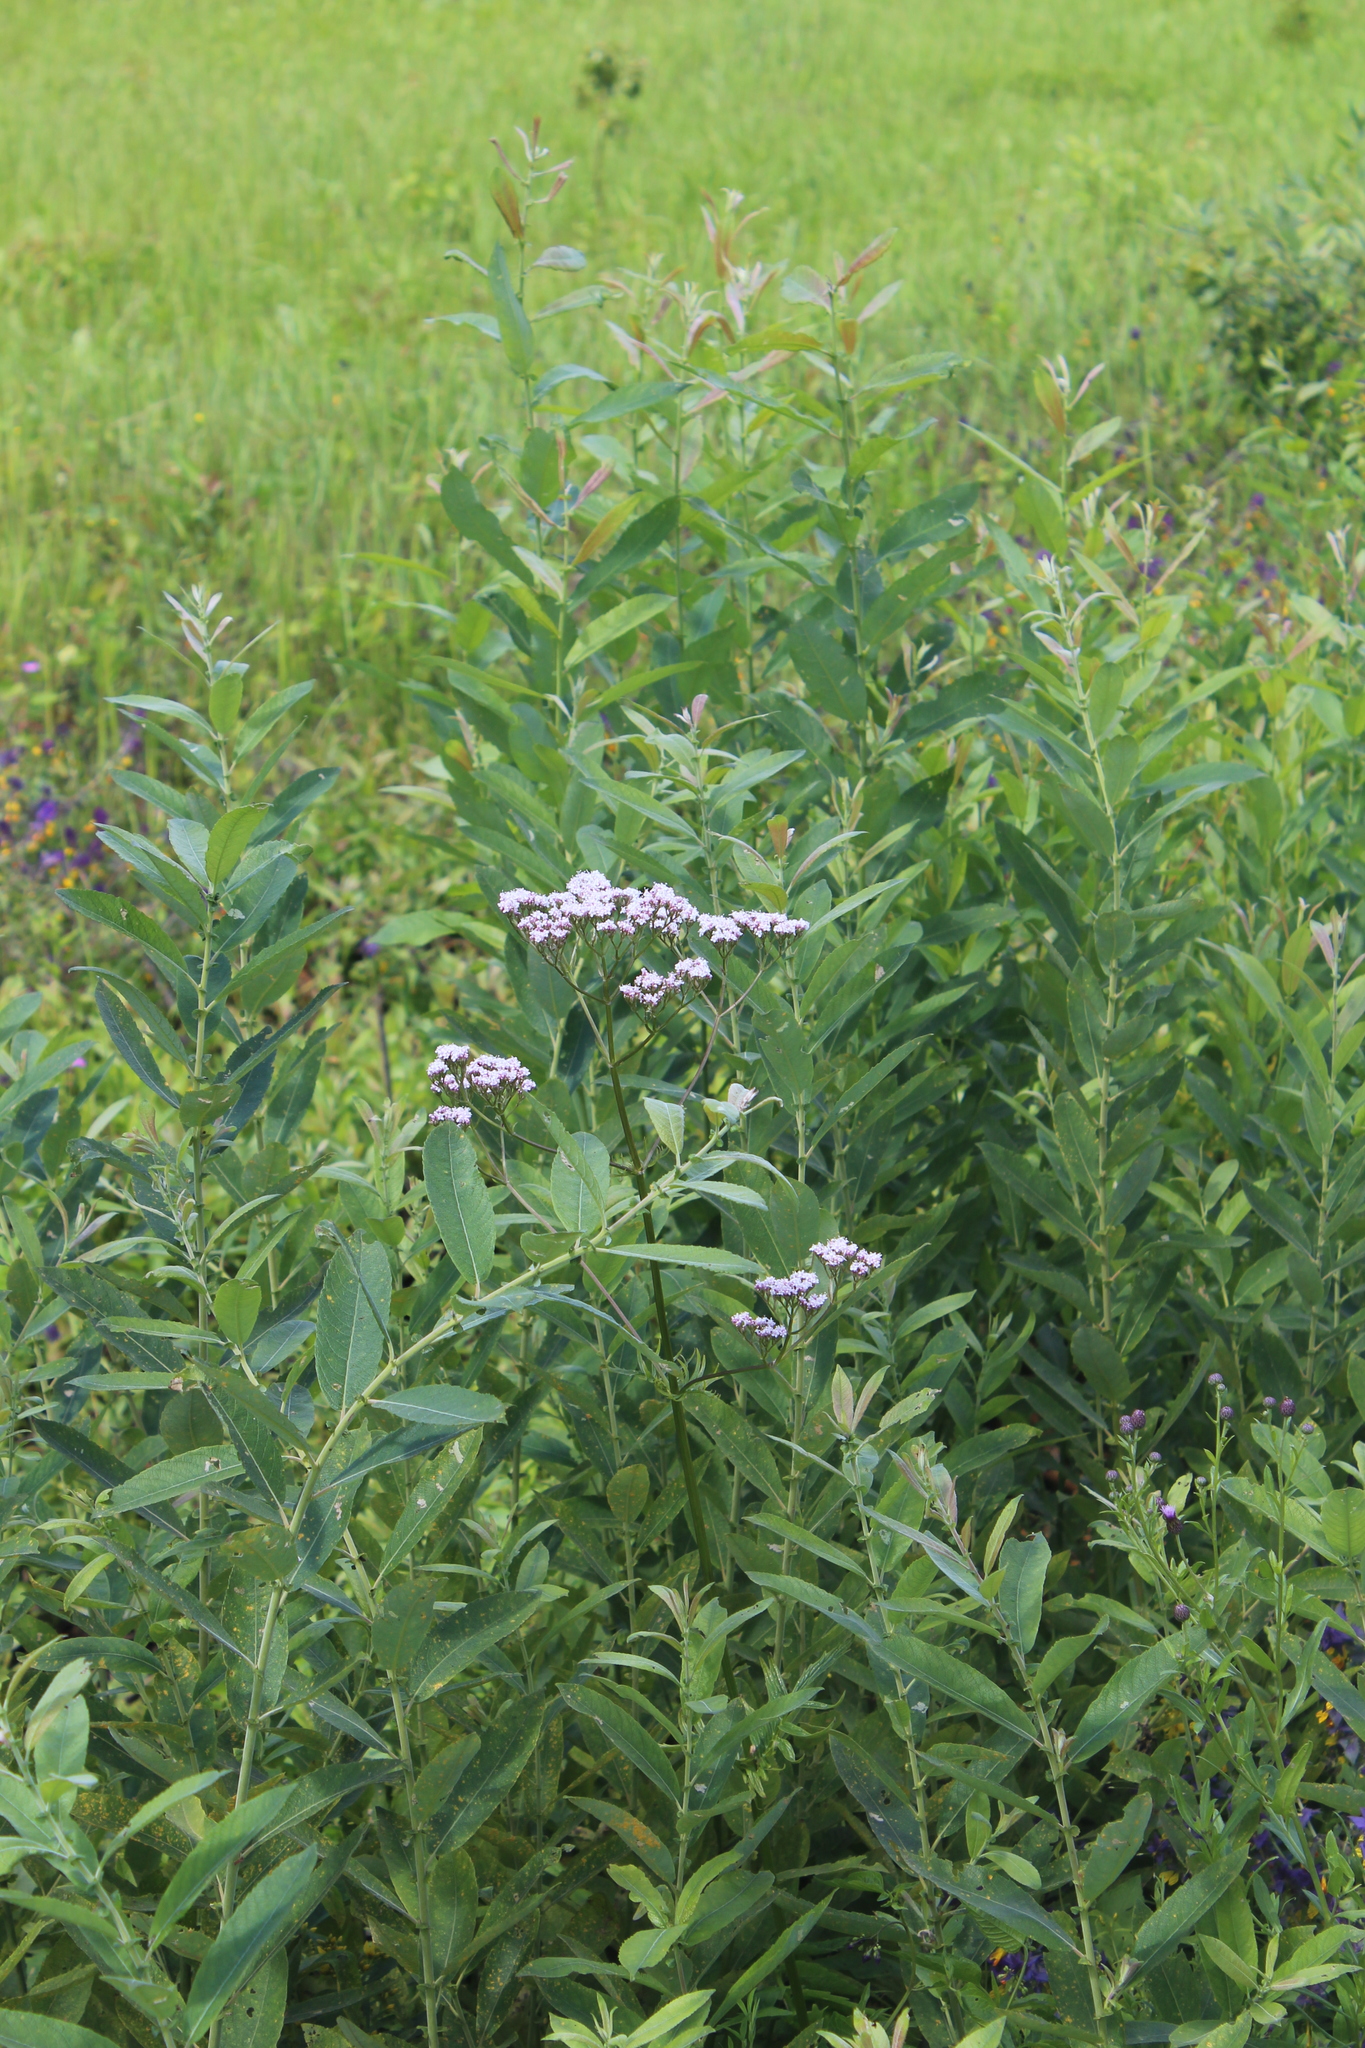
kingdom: Plantae
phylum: Tracheophyta
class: Magnoliopsida
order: Dipsacales
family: Caprifoliaceae
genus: Valeriana
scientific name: Valeriana officinalis
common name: Common valerian
